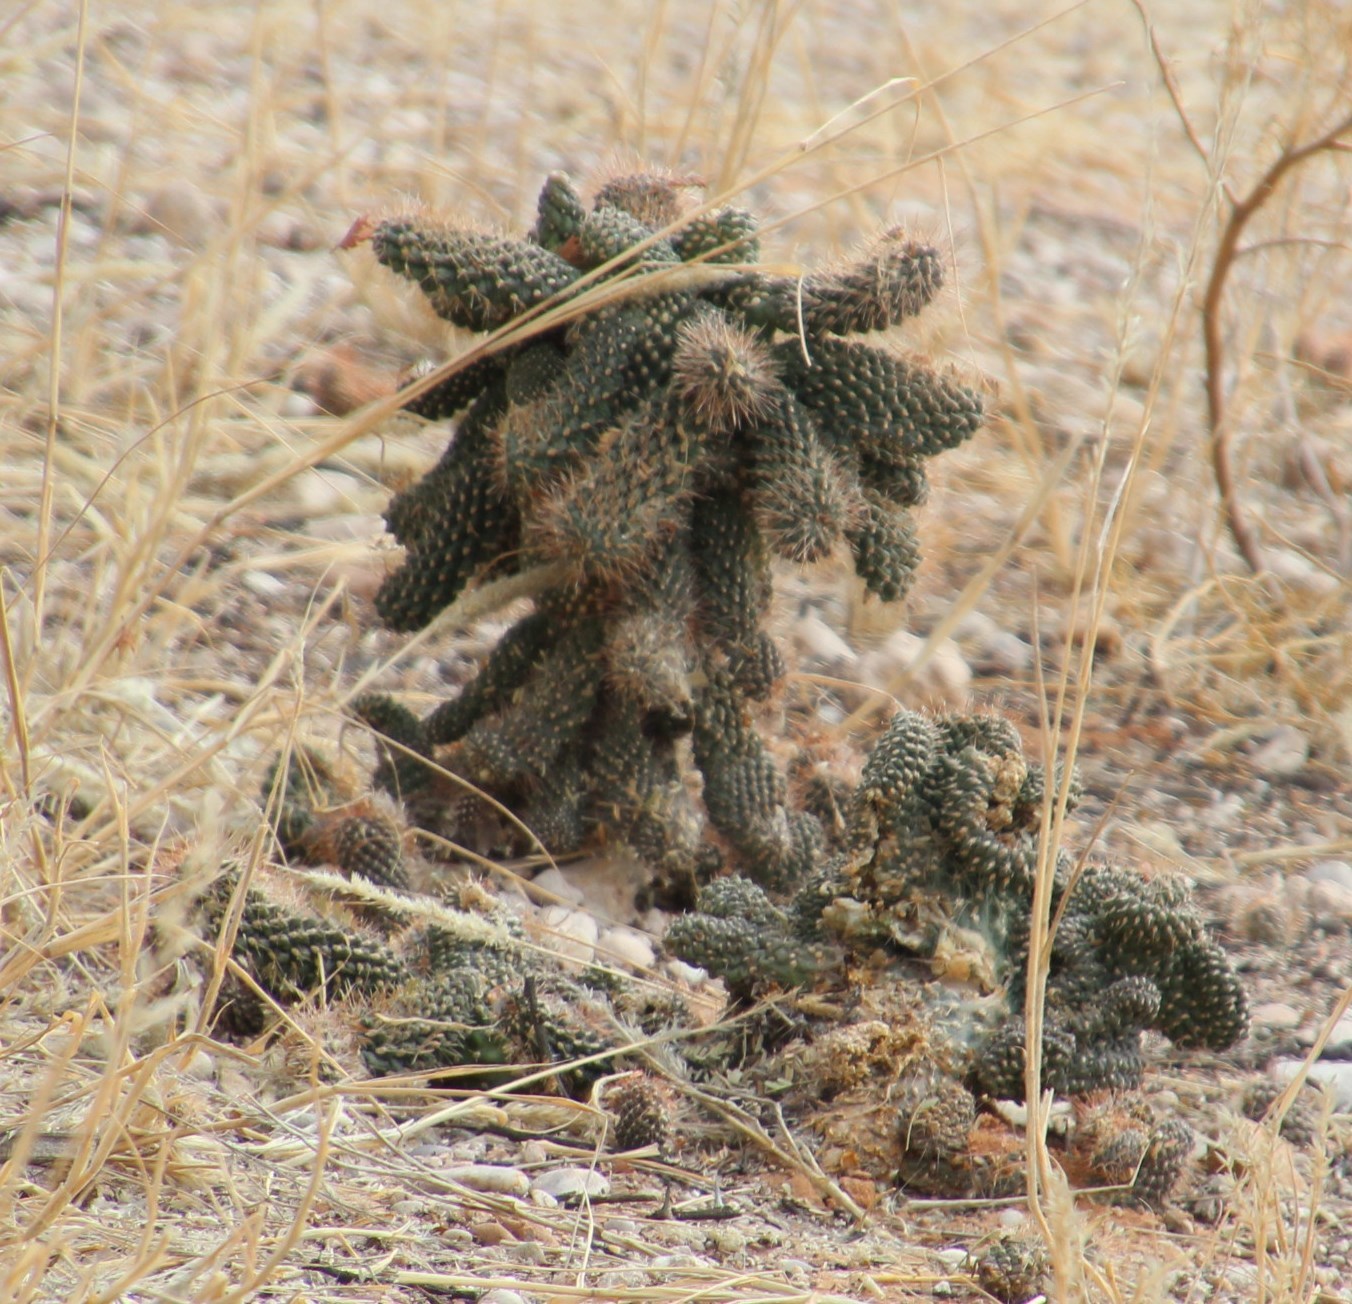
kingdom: Plantae
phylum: Tracheophyta
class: Magnoliopsida
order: Caryophyllales
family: Cactaceae
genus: Cylindropuntia
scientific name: Cylindropuntia fulgida
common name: Jumping cholla
